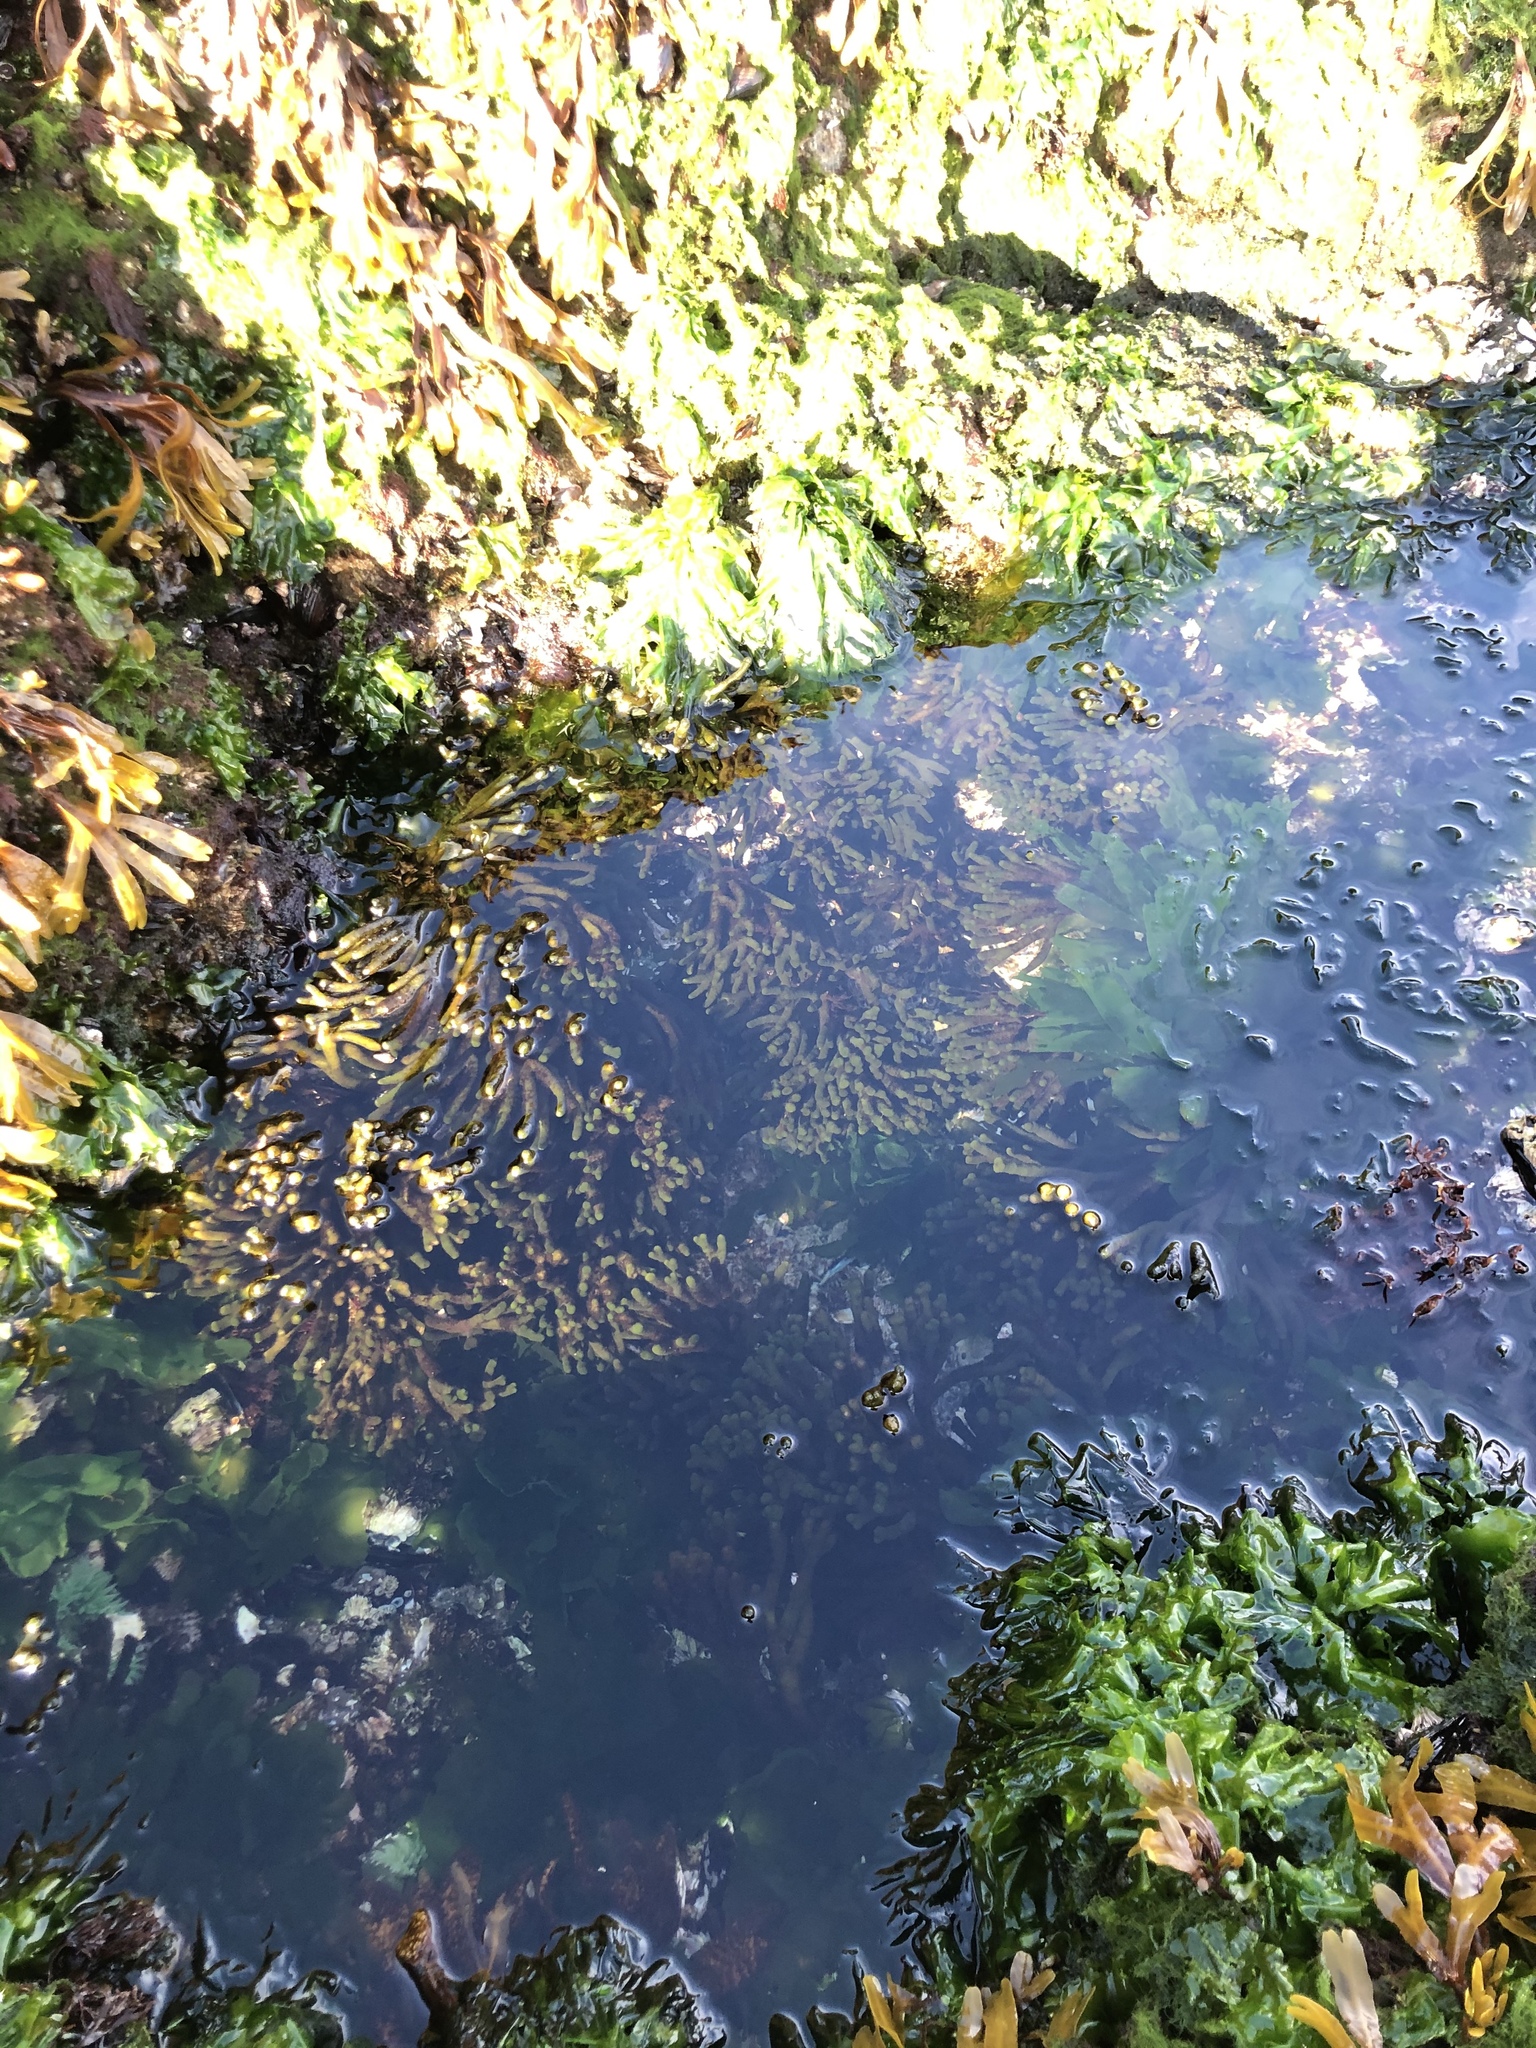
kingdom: Plantae
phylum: Chlorophyta
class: Ulvophyceae
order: Bryopsidales
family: Codiaceae
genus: Codium
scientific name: Codium fragile
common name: Dead man's fingers
